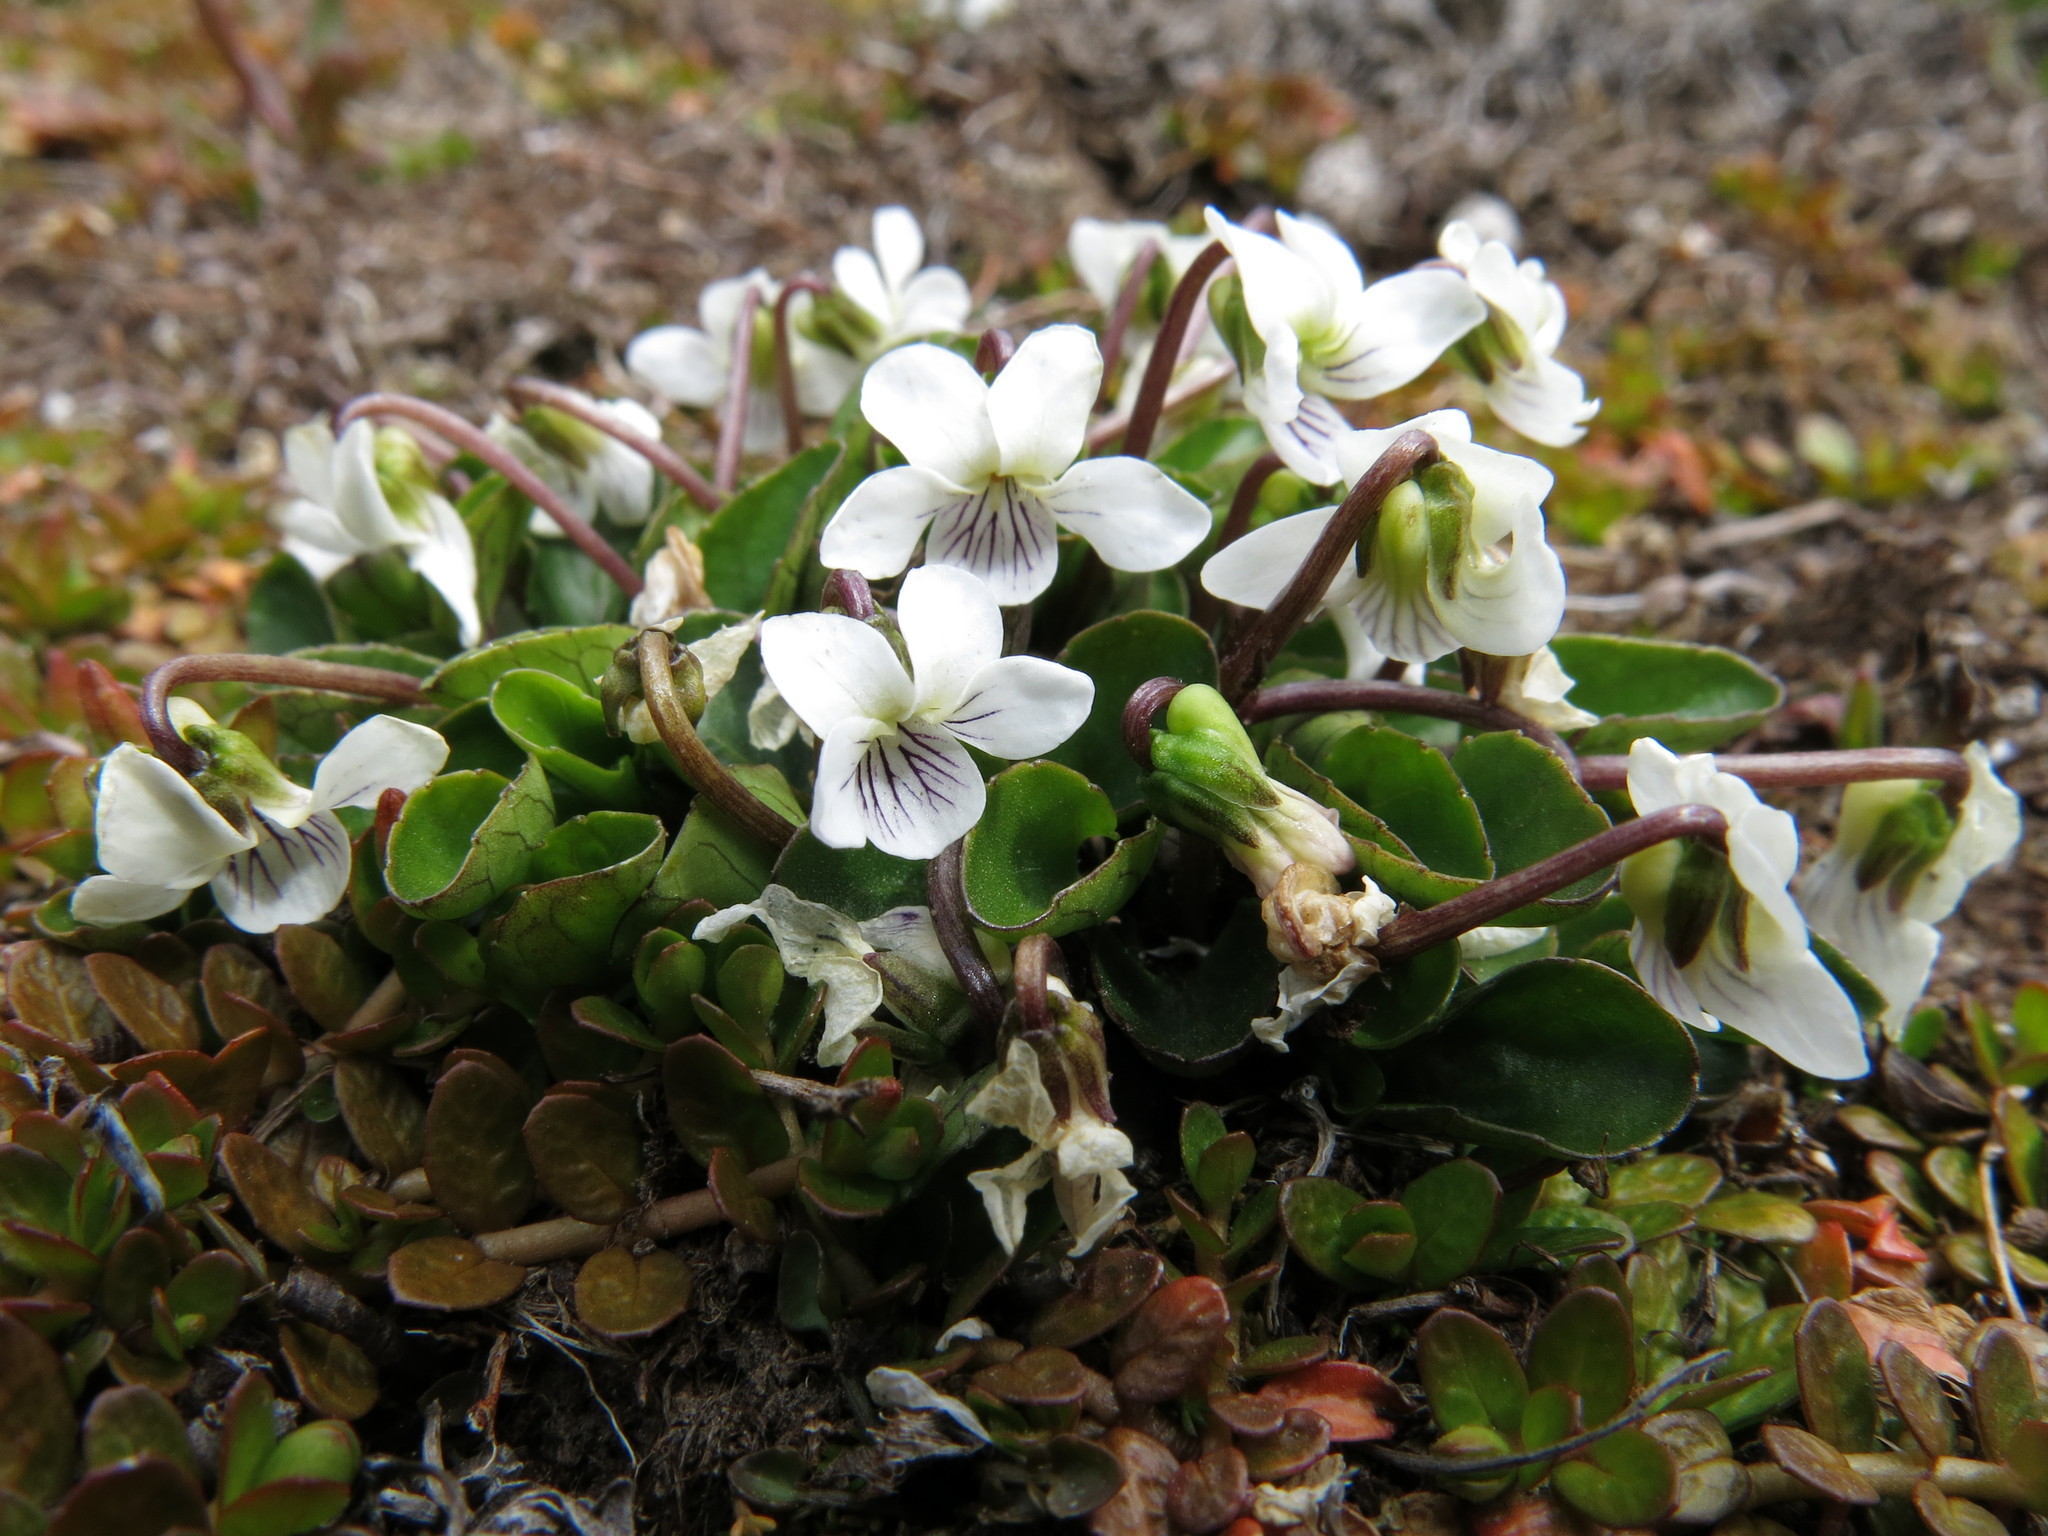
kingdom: Plantae
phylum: Tracheophyta
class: Magnoliopsida
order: Malpighiales
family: Violaceae
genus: Viola
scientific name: Viola cunninghamii
